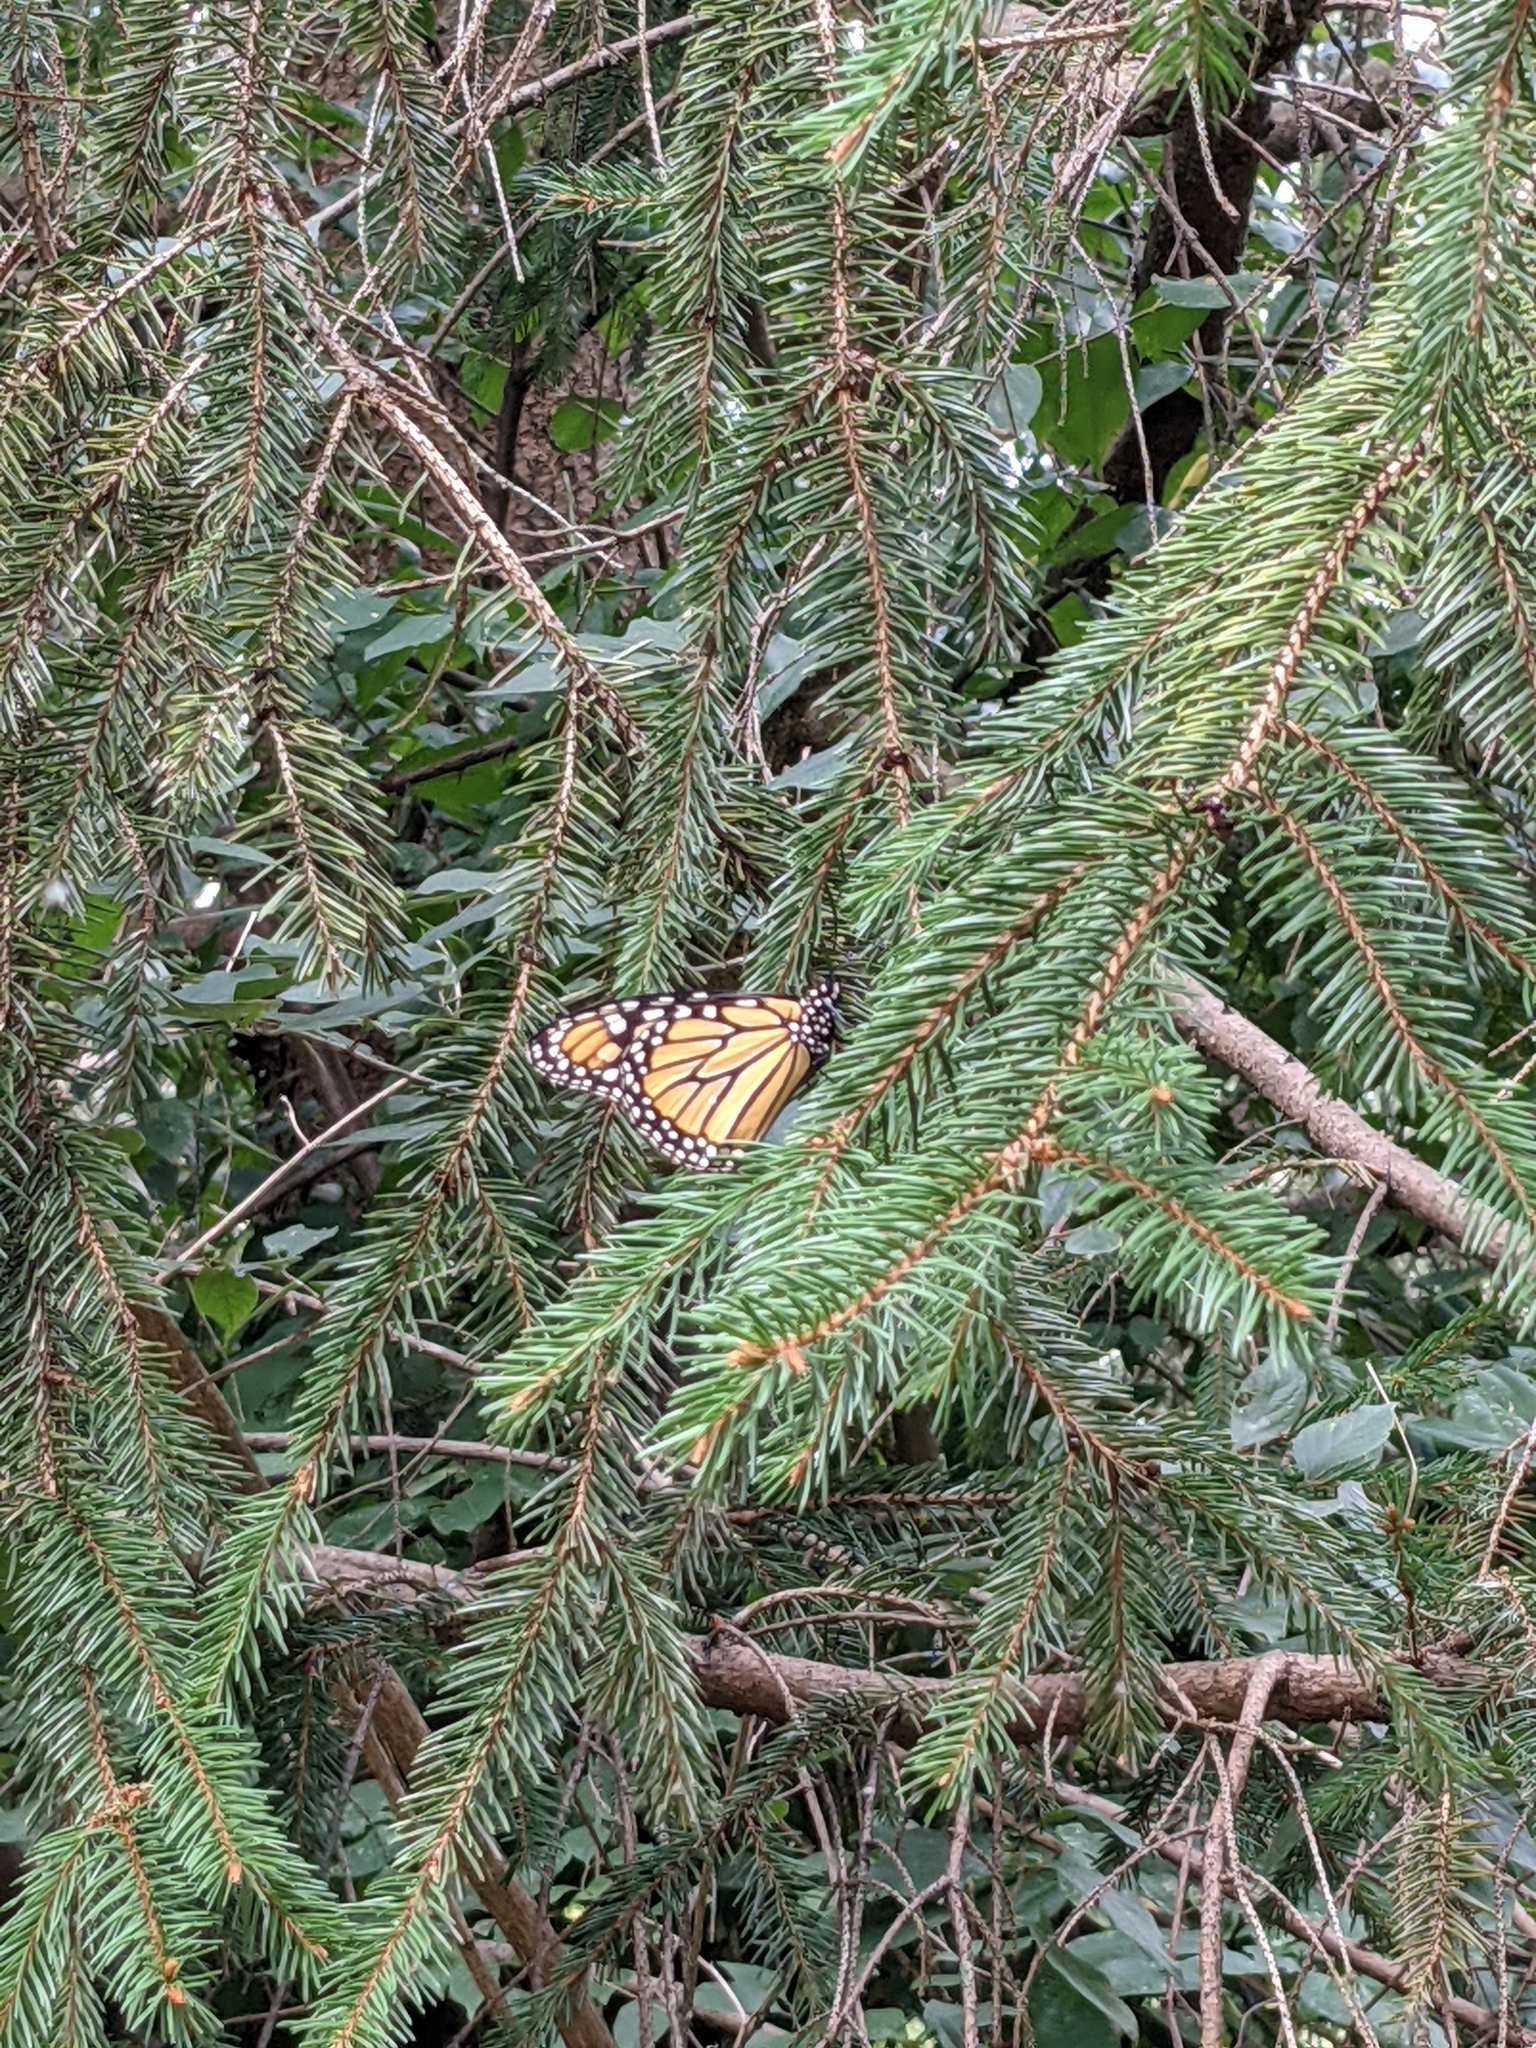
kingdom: Animalia
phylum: Arthropoda
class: Insecta
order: Lepidoptera
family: Nymphalidae
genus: Danaus
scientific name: Danaus plexippus
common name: Monarch
